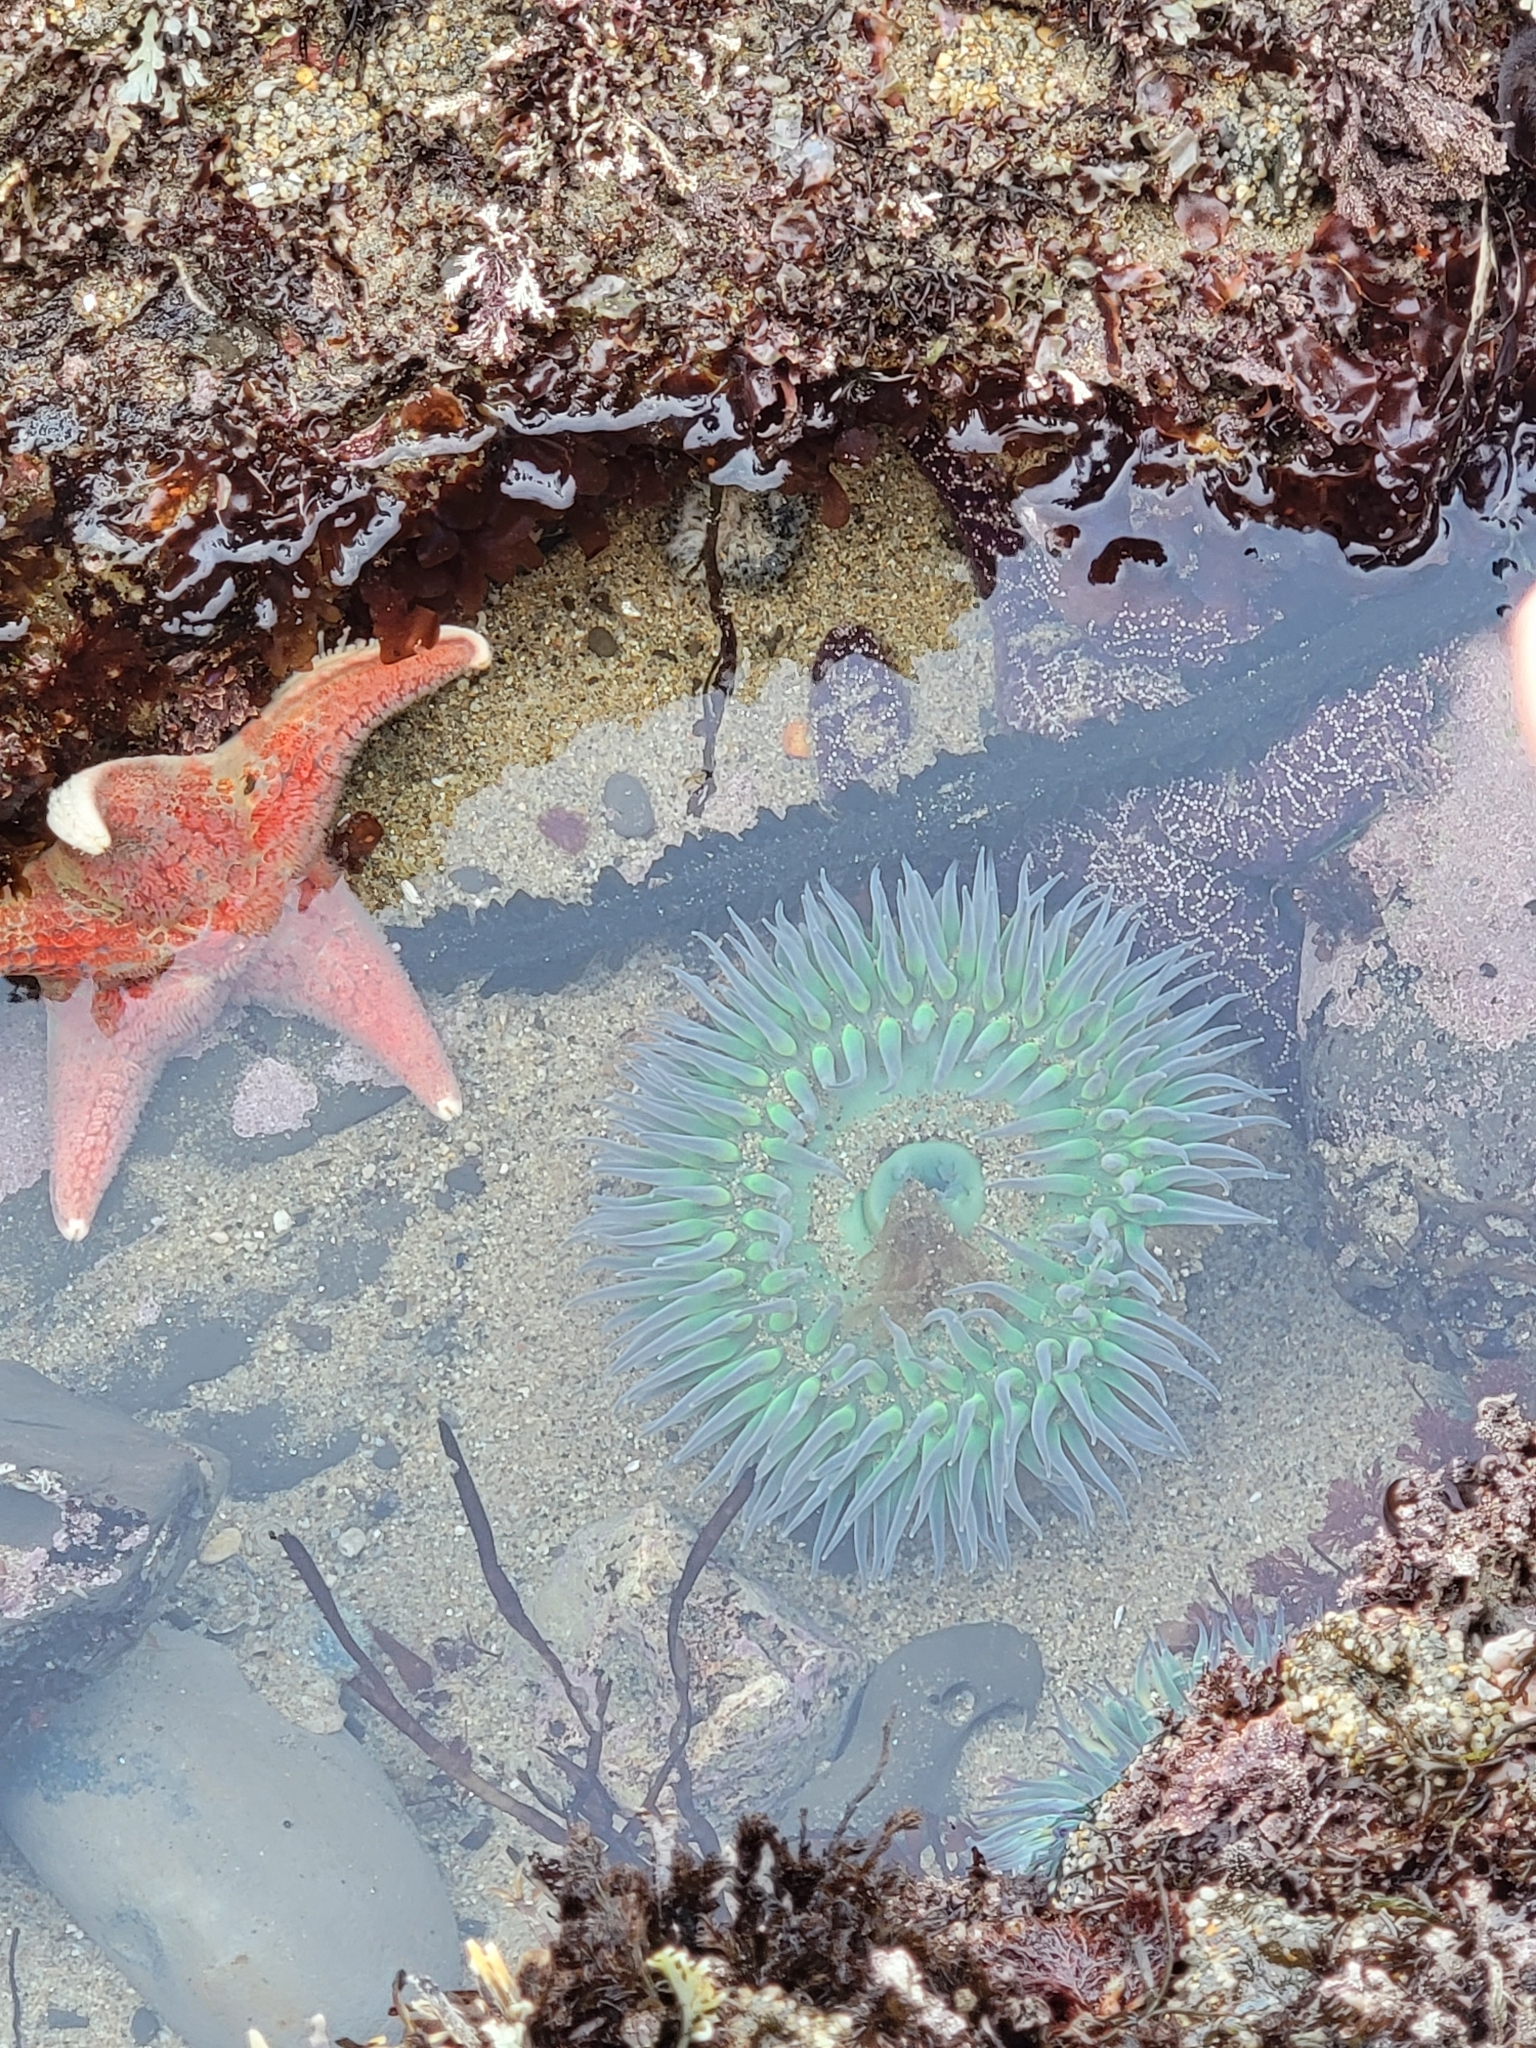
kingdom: Animalia
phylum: Echinodermata
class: Asteroidea
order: Valvatida
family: Asteropseidae
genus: Dermasterias
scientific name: Dermasterias imbricata
